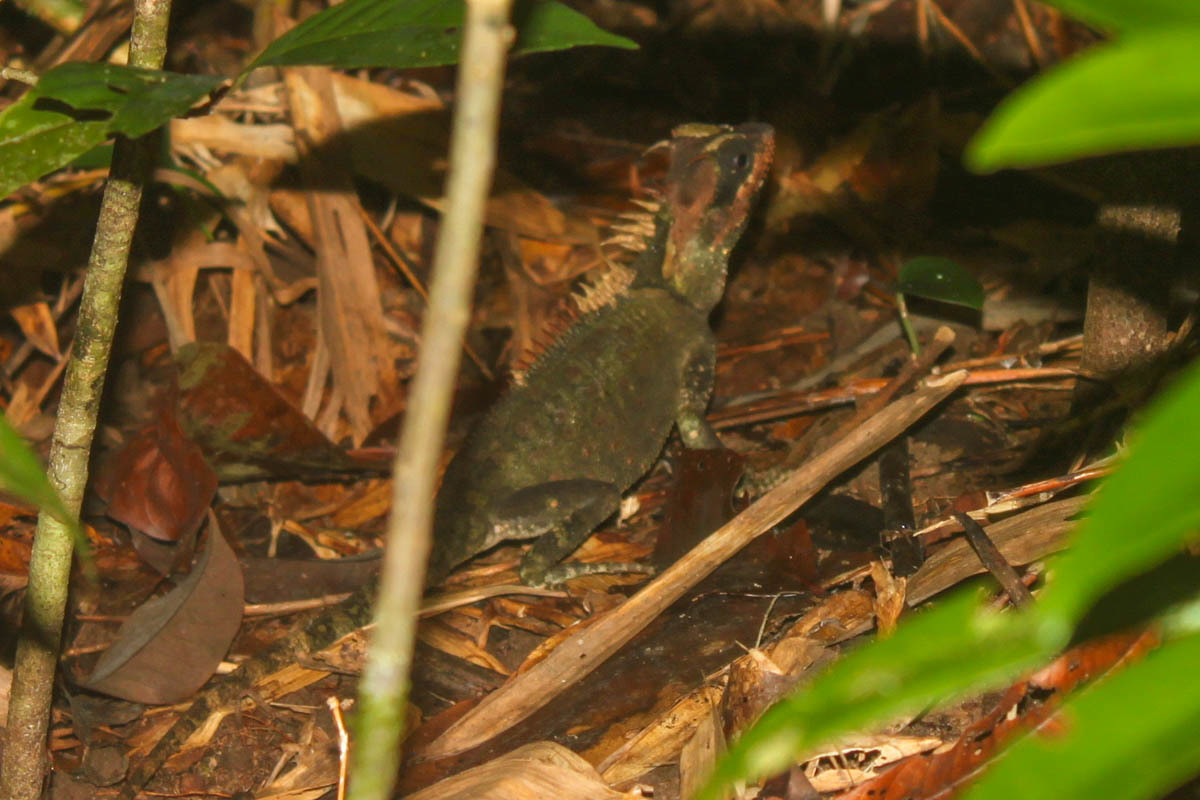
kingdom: Animalia
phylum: Chordata
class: Squamata
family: Agamidae
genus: Acanthosaura
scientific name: Acanthosaura cardamomensis
